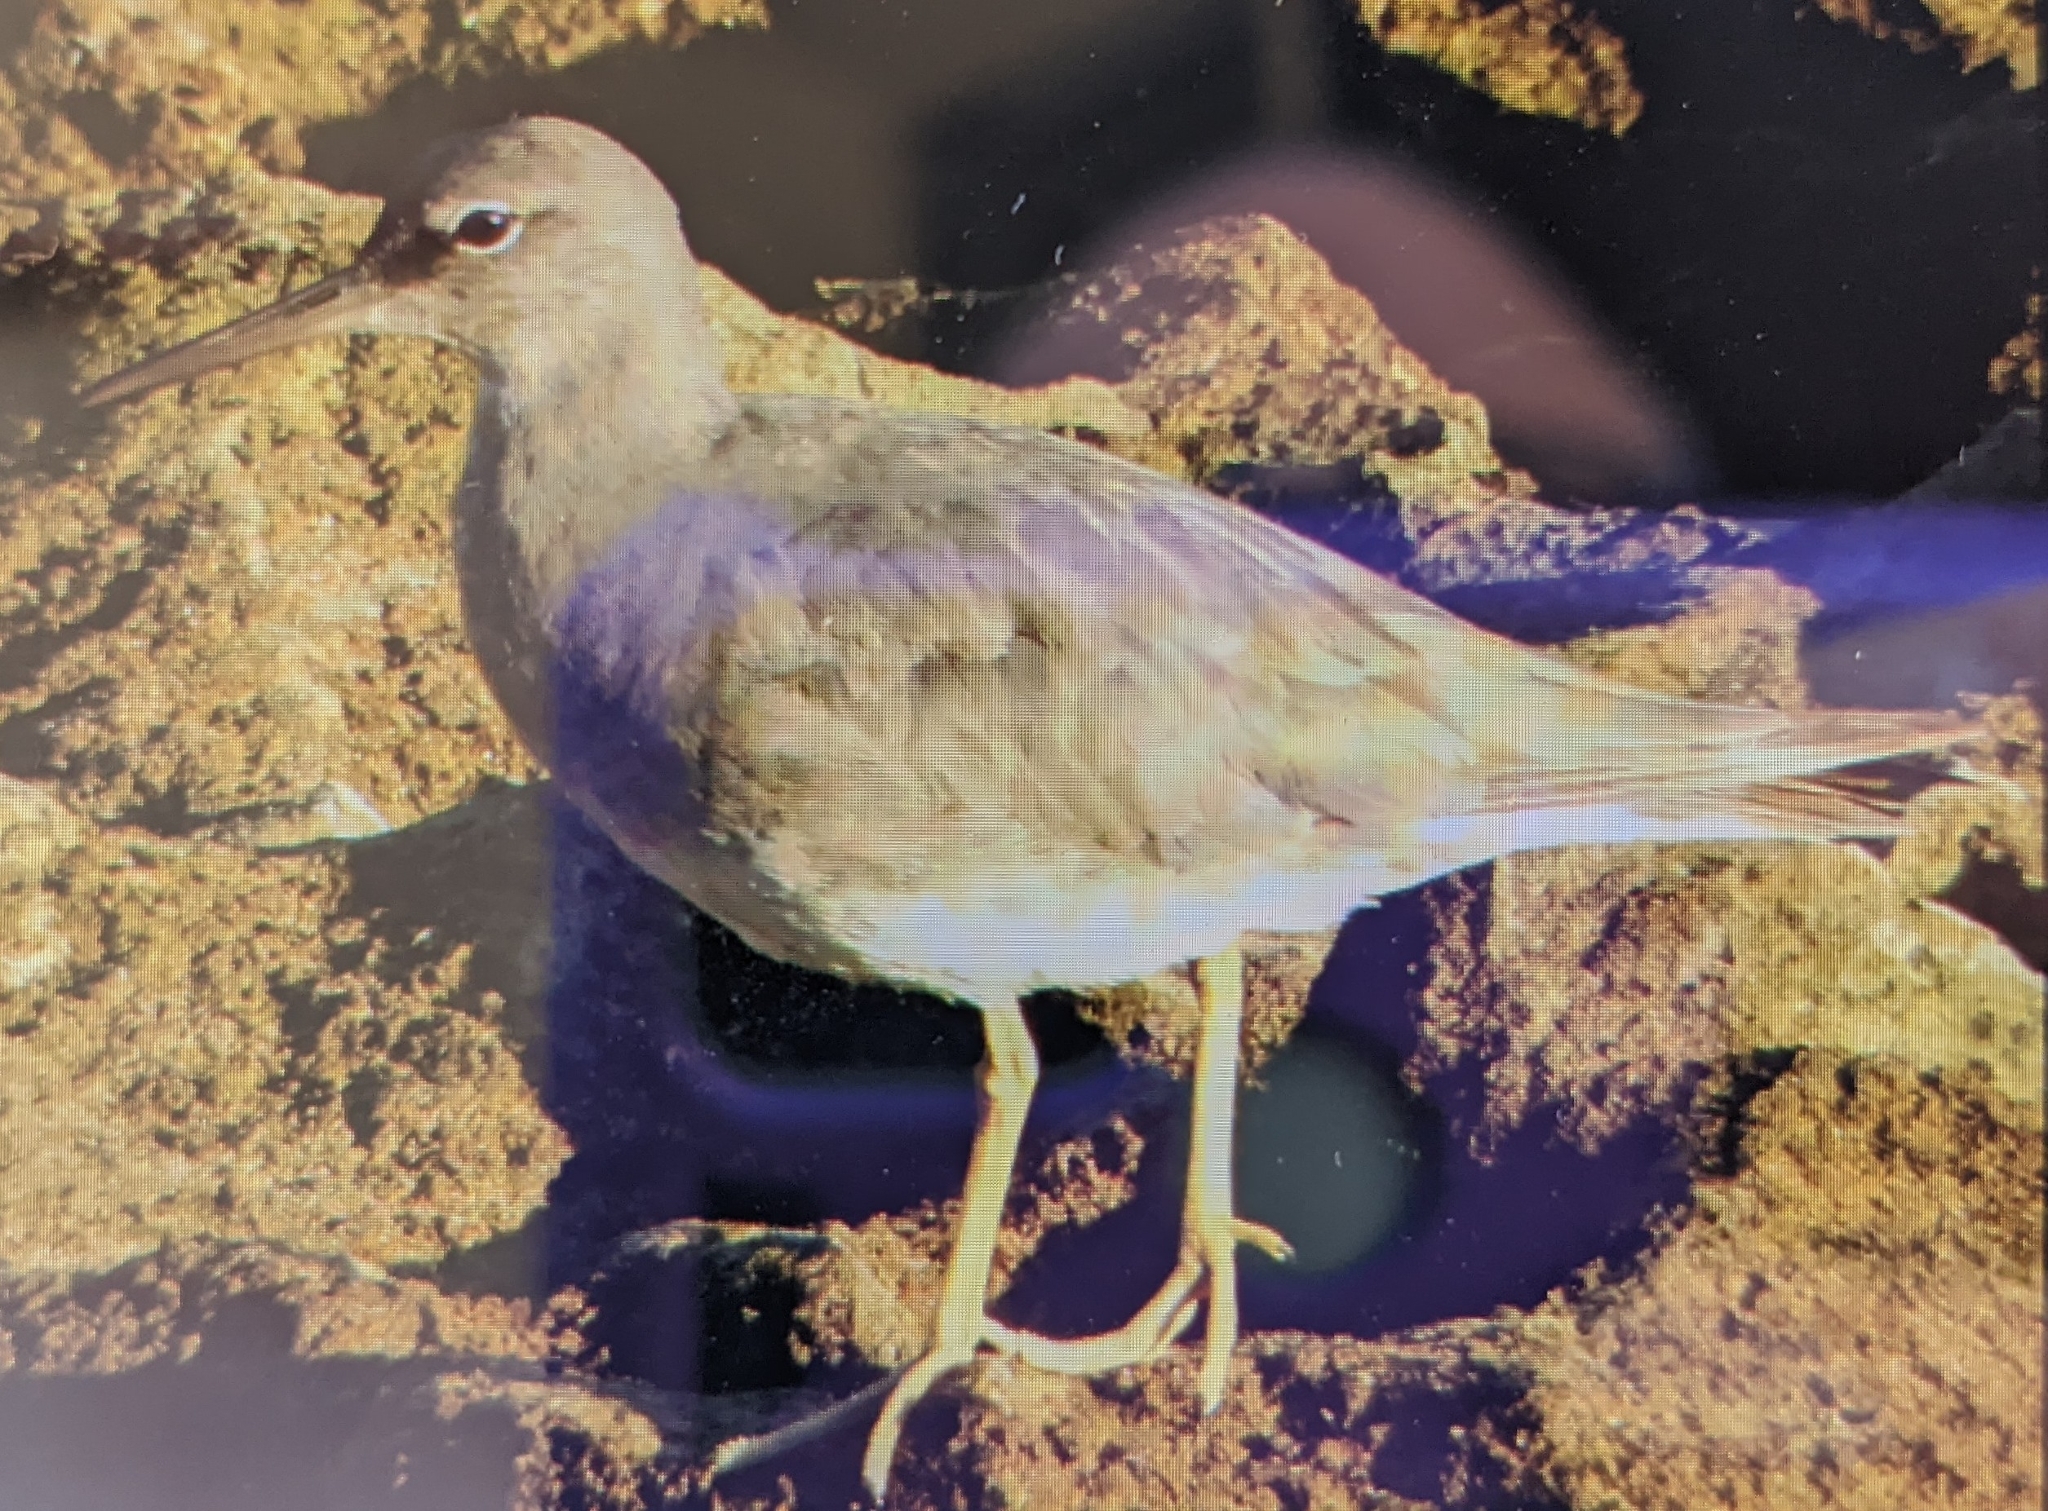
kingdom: Animalia
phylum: Chordata
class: Aves
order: Charadriiformes
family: Scolopacidae
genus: Tringa
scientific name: Tringa incana
